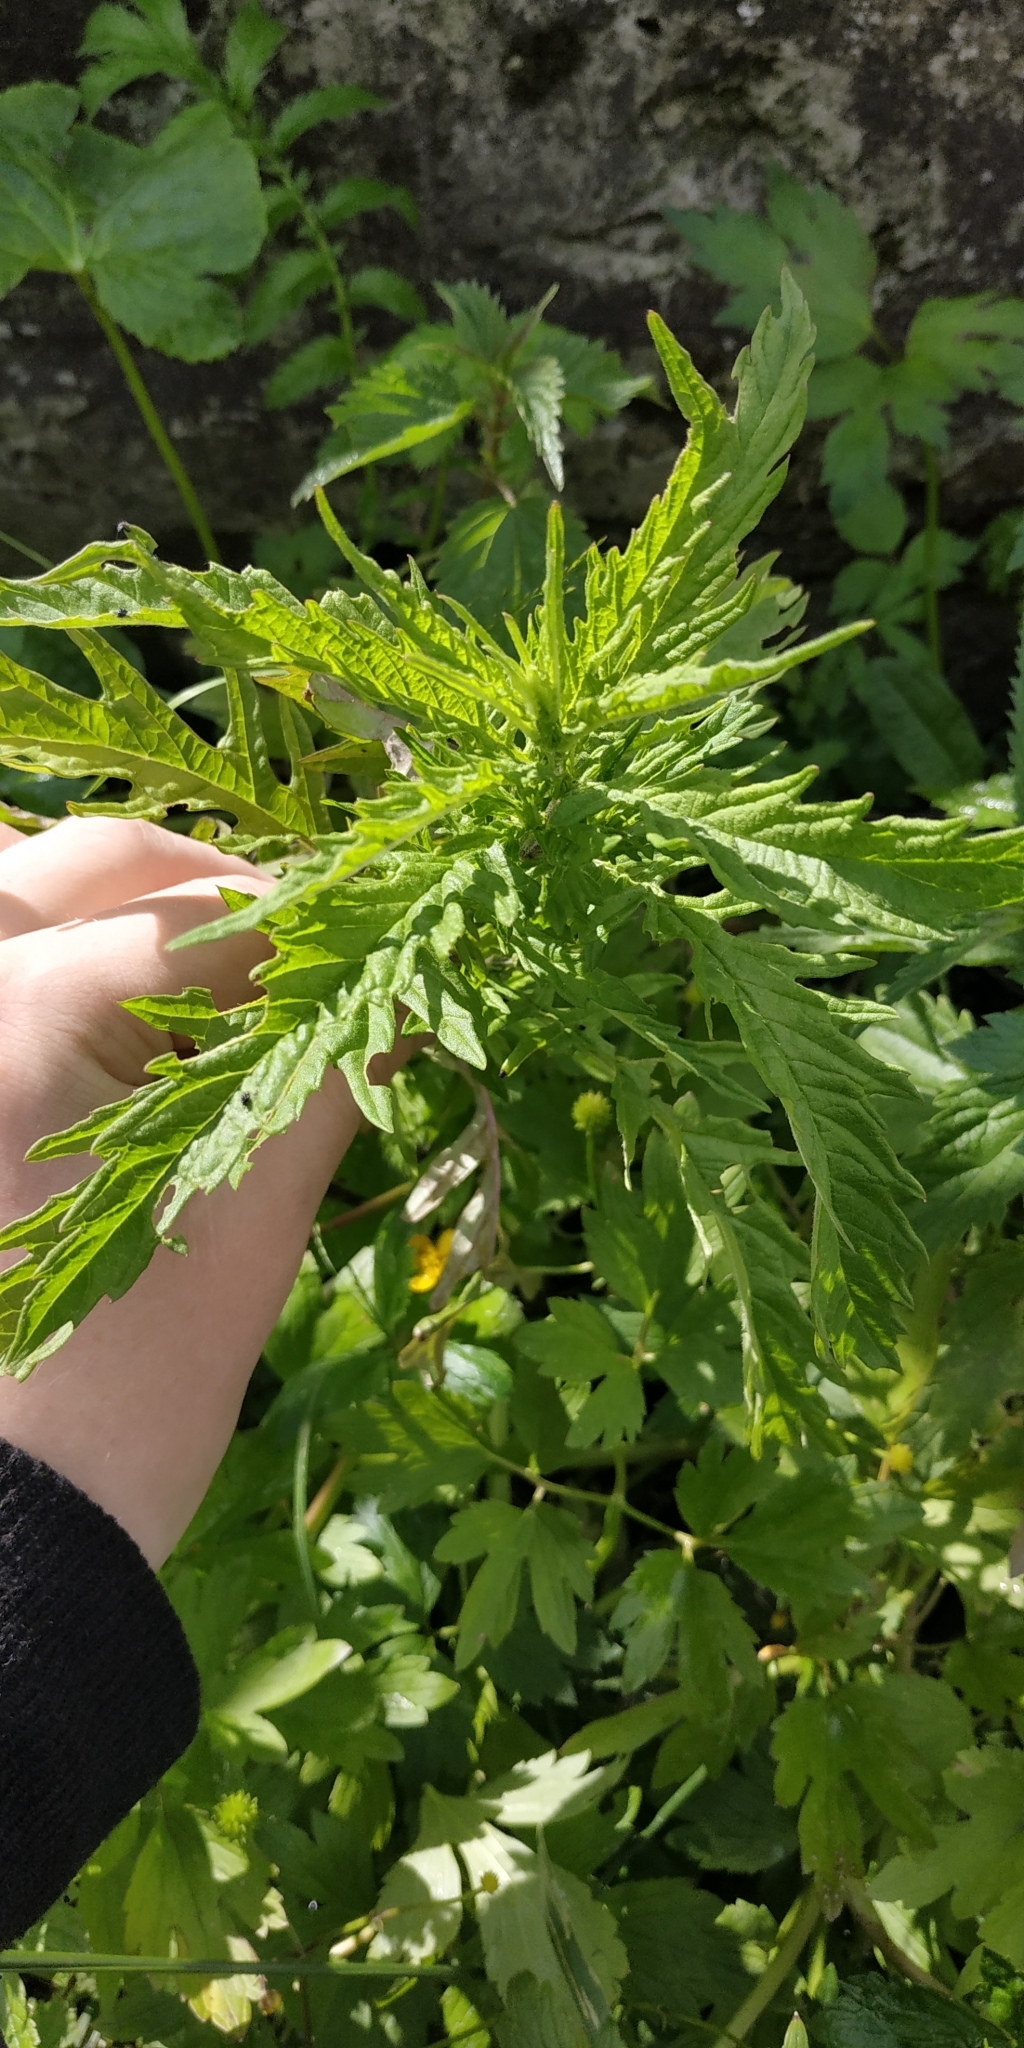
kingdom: Plantae
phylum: Tracheophyta
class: Magnoliopsida
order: Lamiales
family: Lamiaceae
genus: Lycopus
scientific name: Lycopus exaltatus
